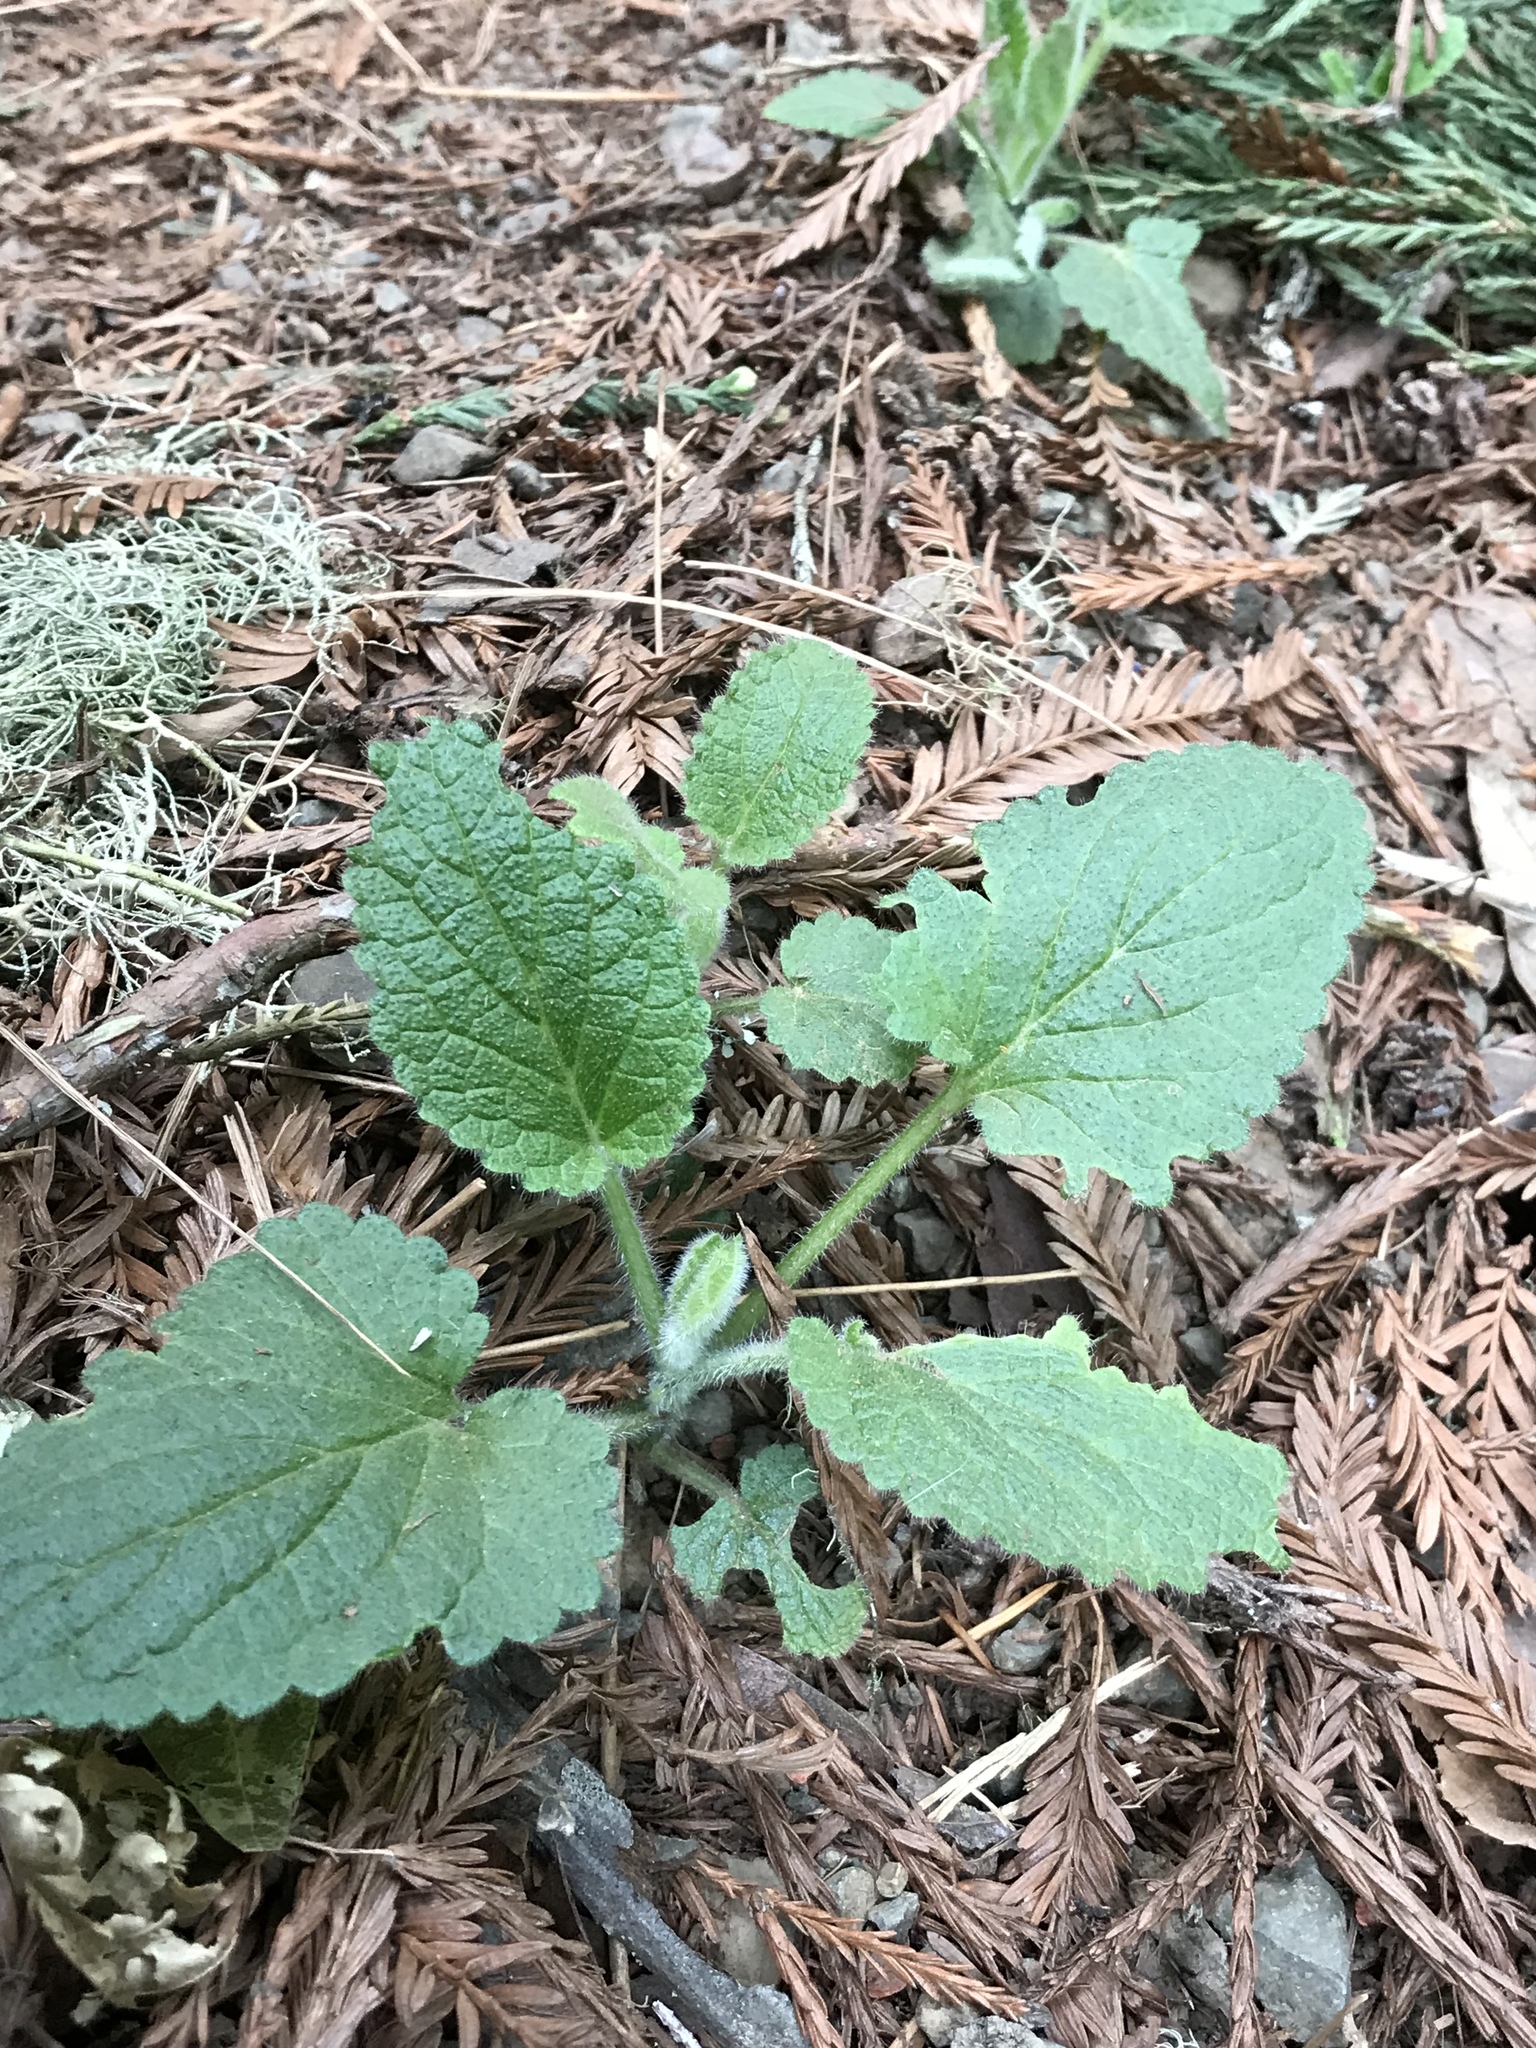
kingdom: Plantae
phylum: Tracheophyta
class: Magnoliopsida
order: Lamiales
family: Lamiaceae
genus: Stachys
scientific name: Stachys rigida
